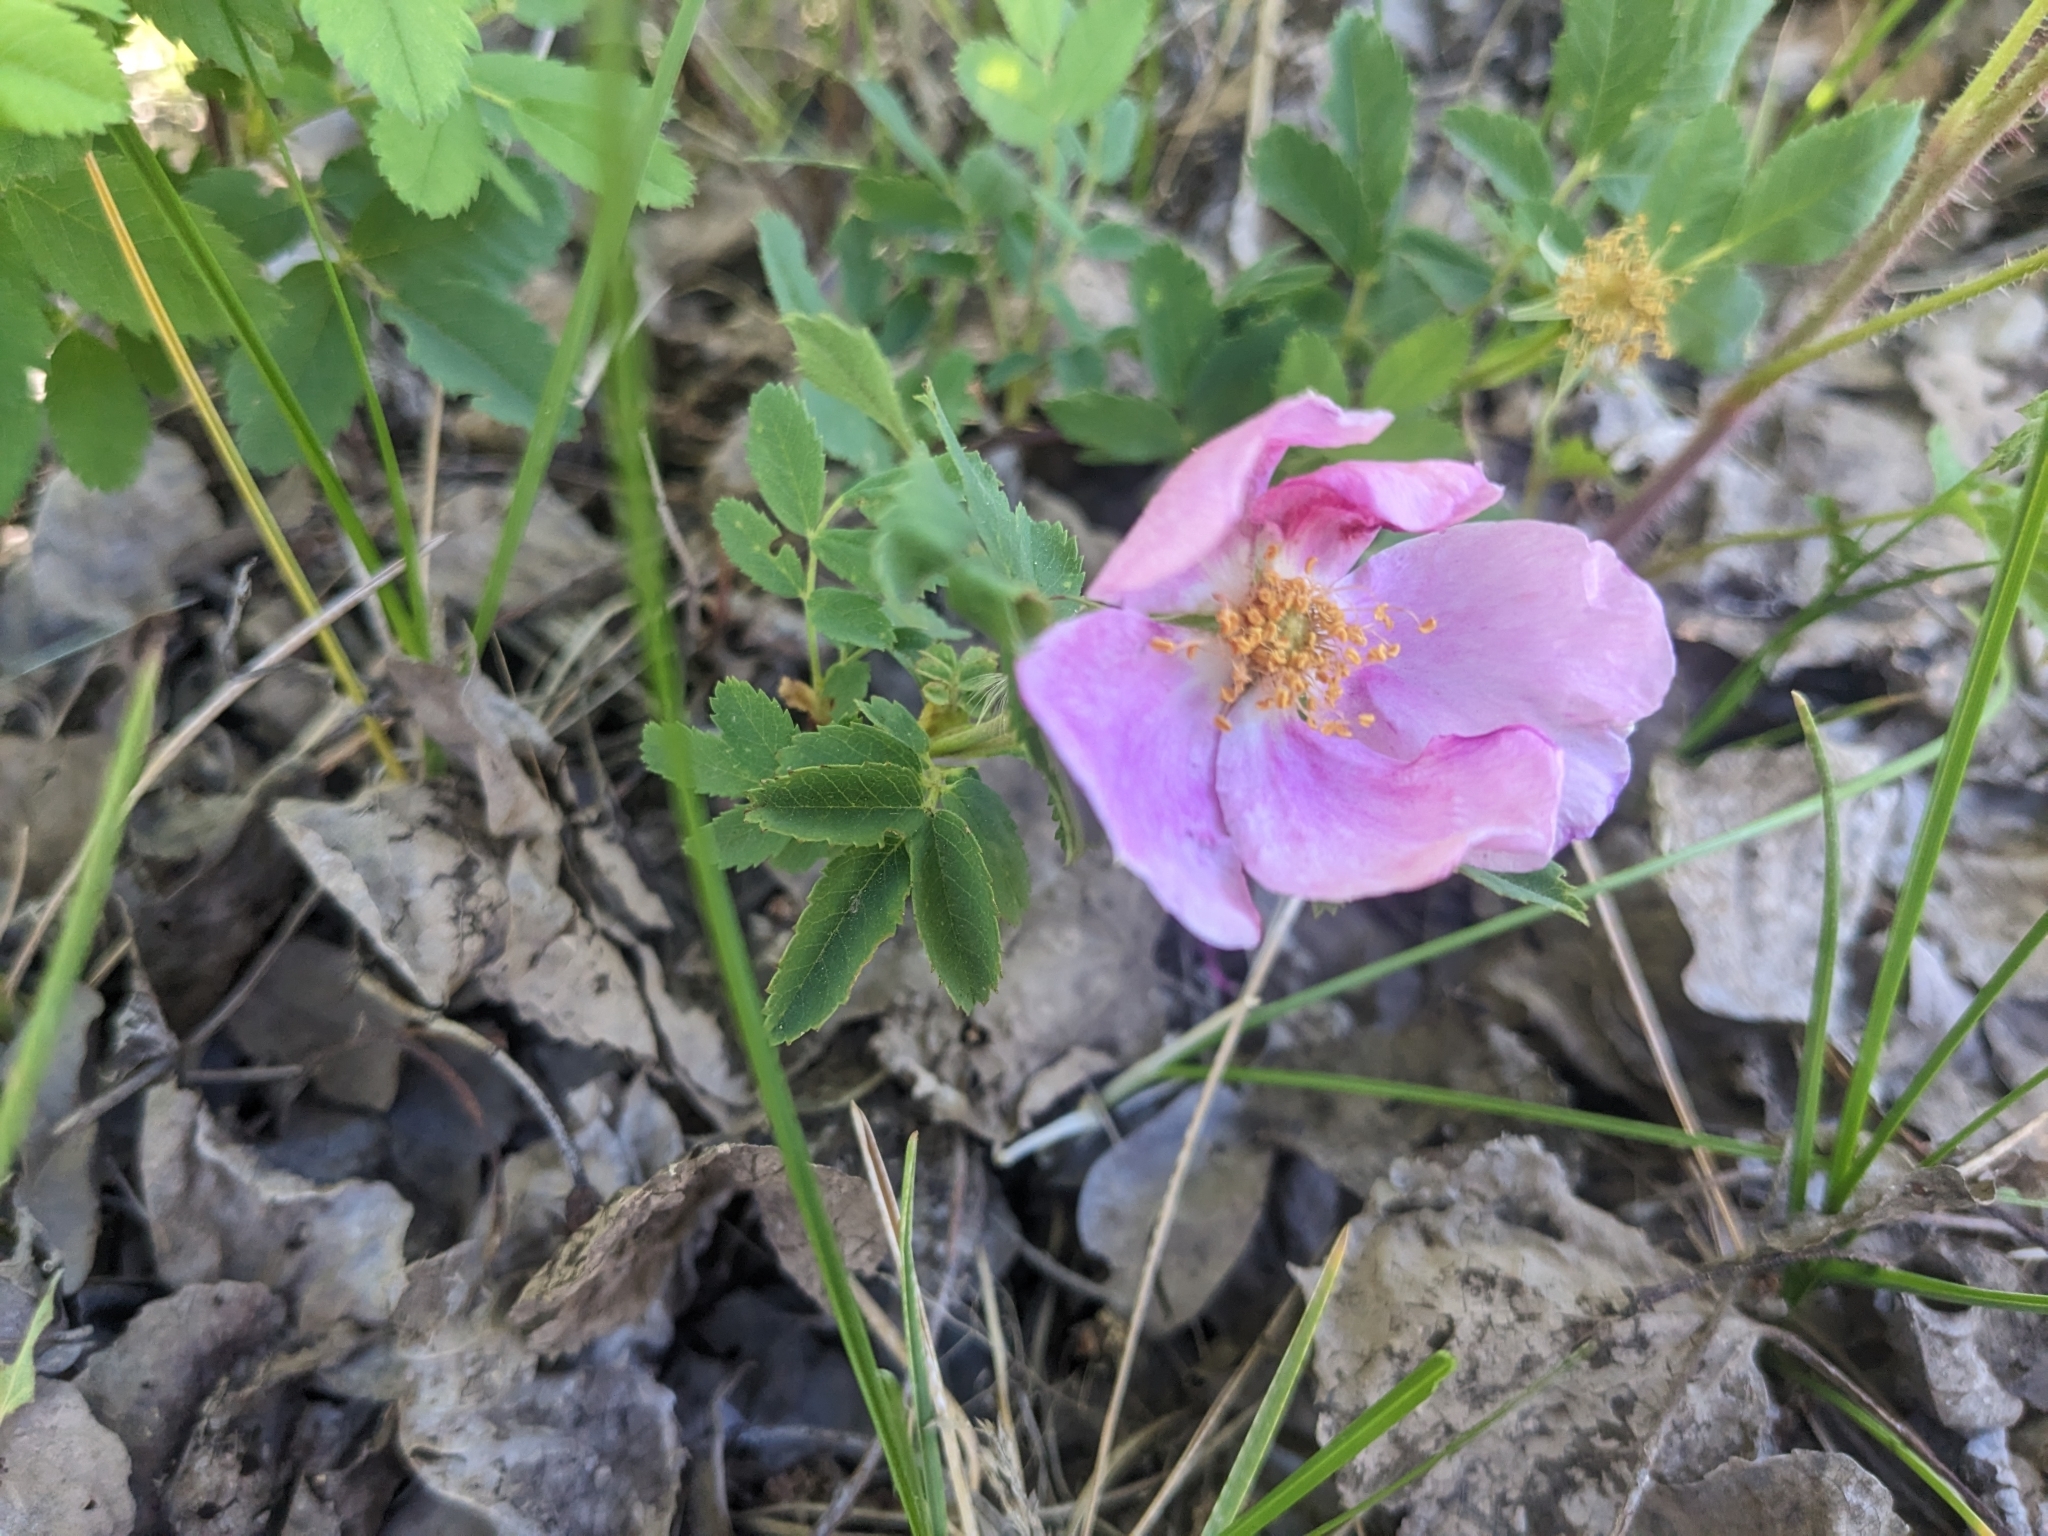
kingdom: Plantae
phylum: Tracheophyta
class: Magnoliopsida
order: Rosales
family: Rosaceae
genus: Rosa
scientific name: Rosa woodsii
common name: Woods's rose
